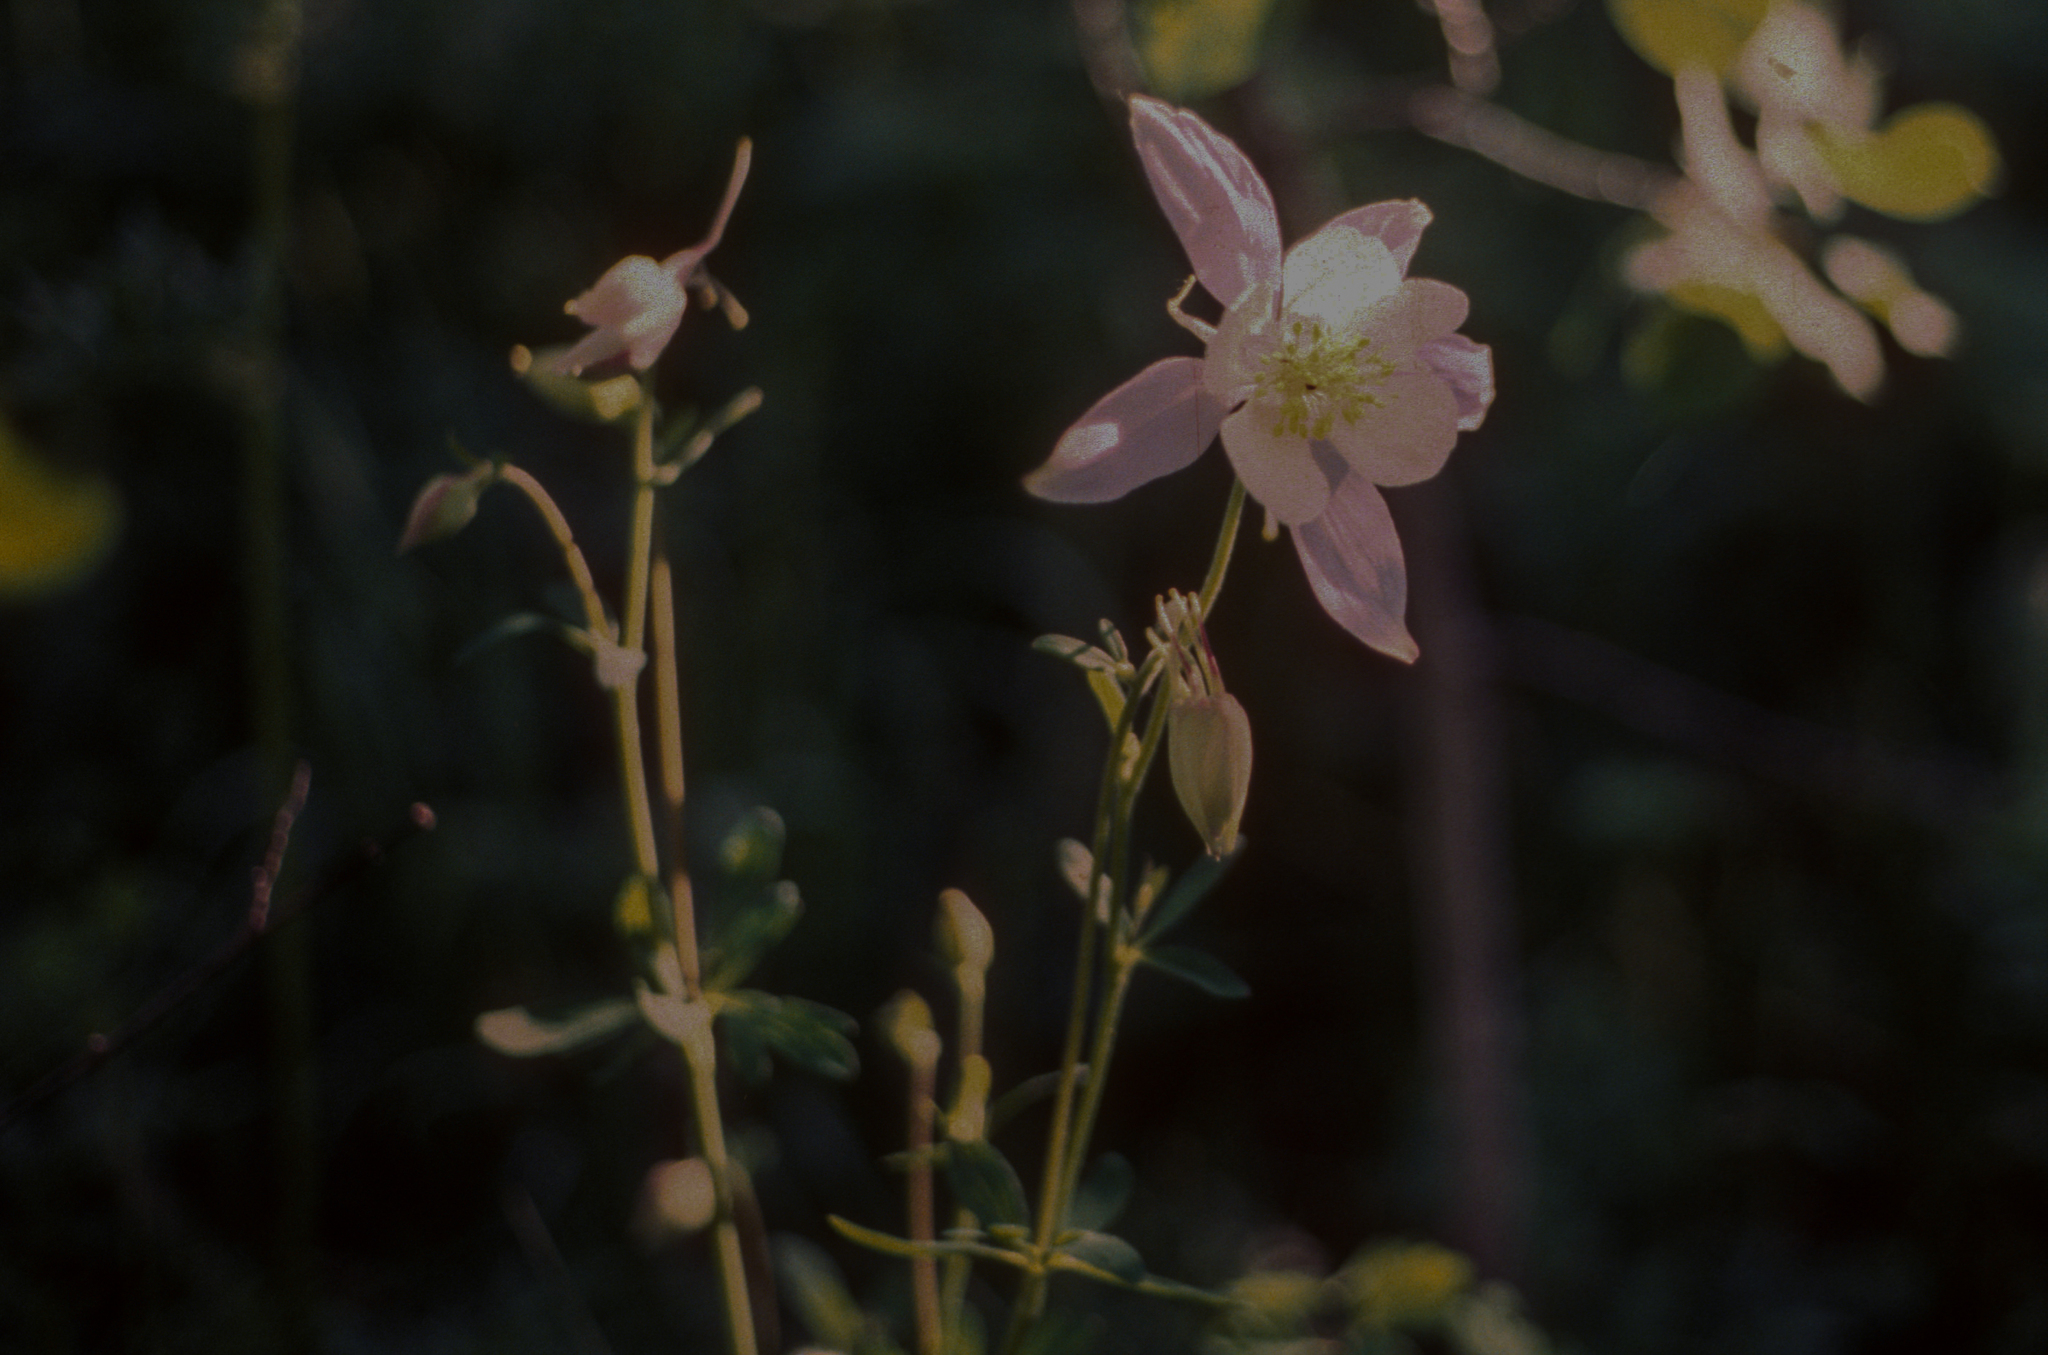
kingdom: Plantae
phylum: Tracheophyta
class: Magnoliopsida
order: Ranunculales
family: Ranunculaceae
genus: Aquilegia
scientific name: Aquilegia coerulea
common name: Rocky mountain columbine
